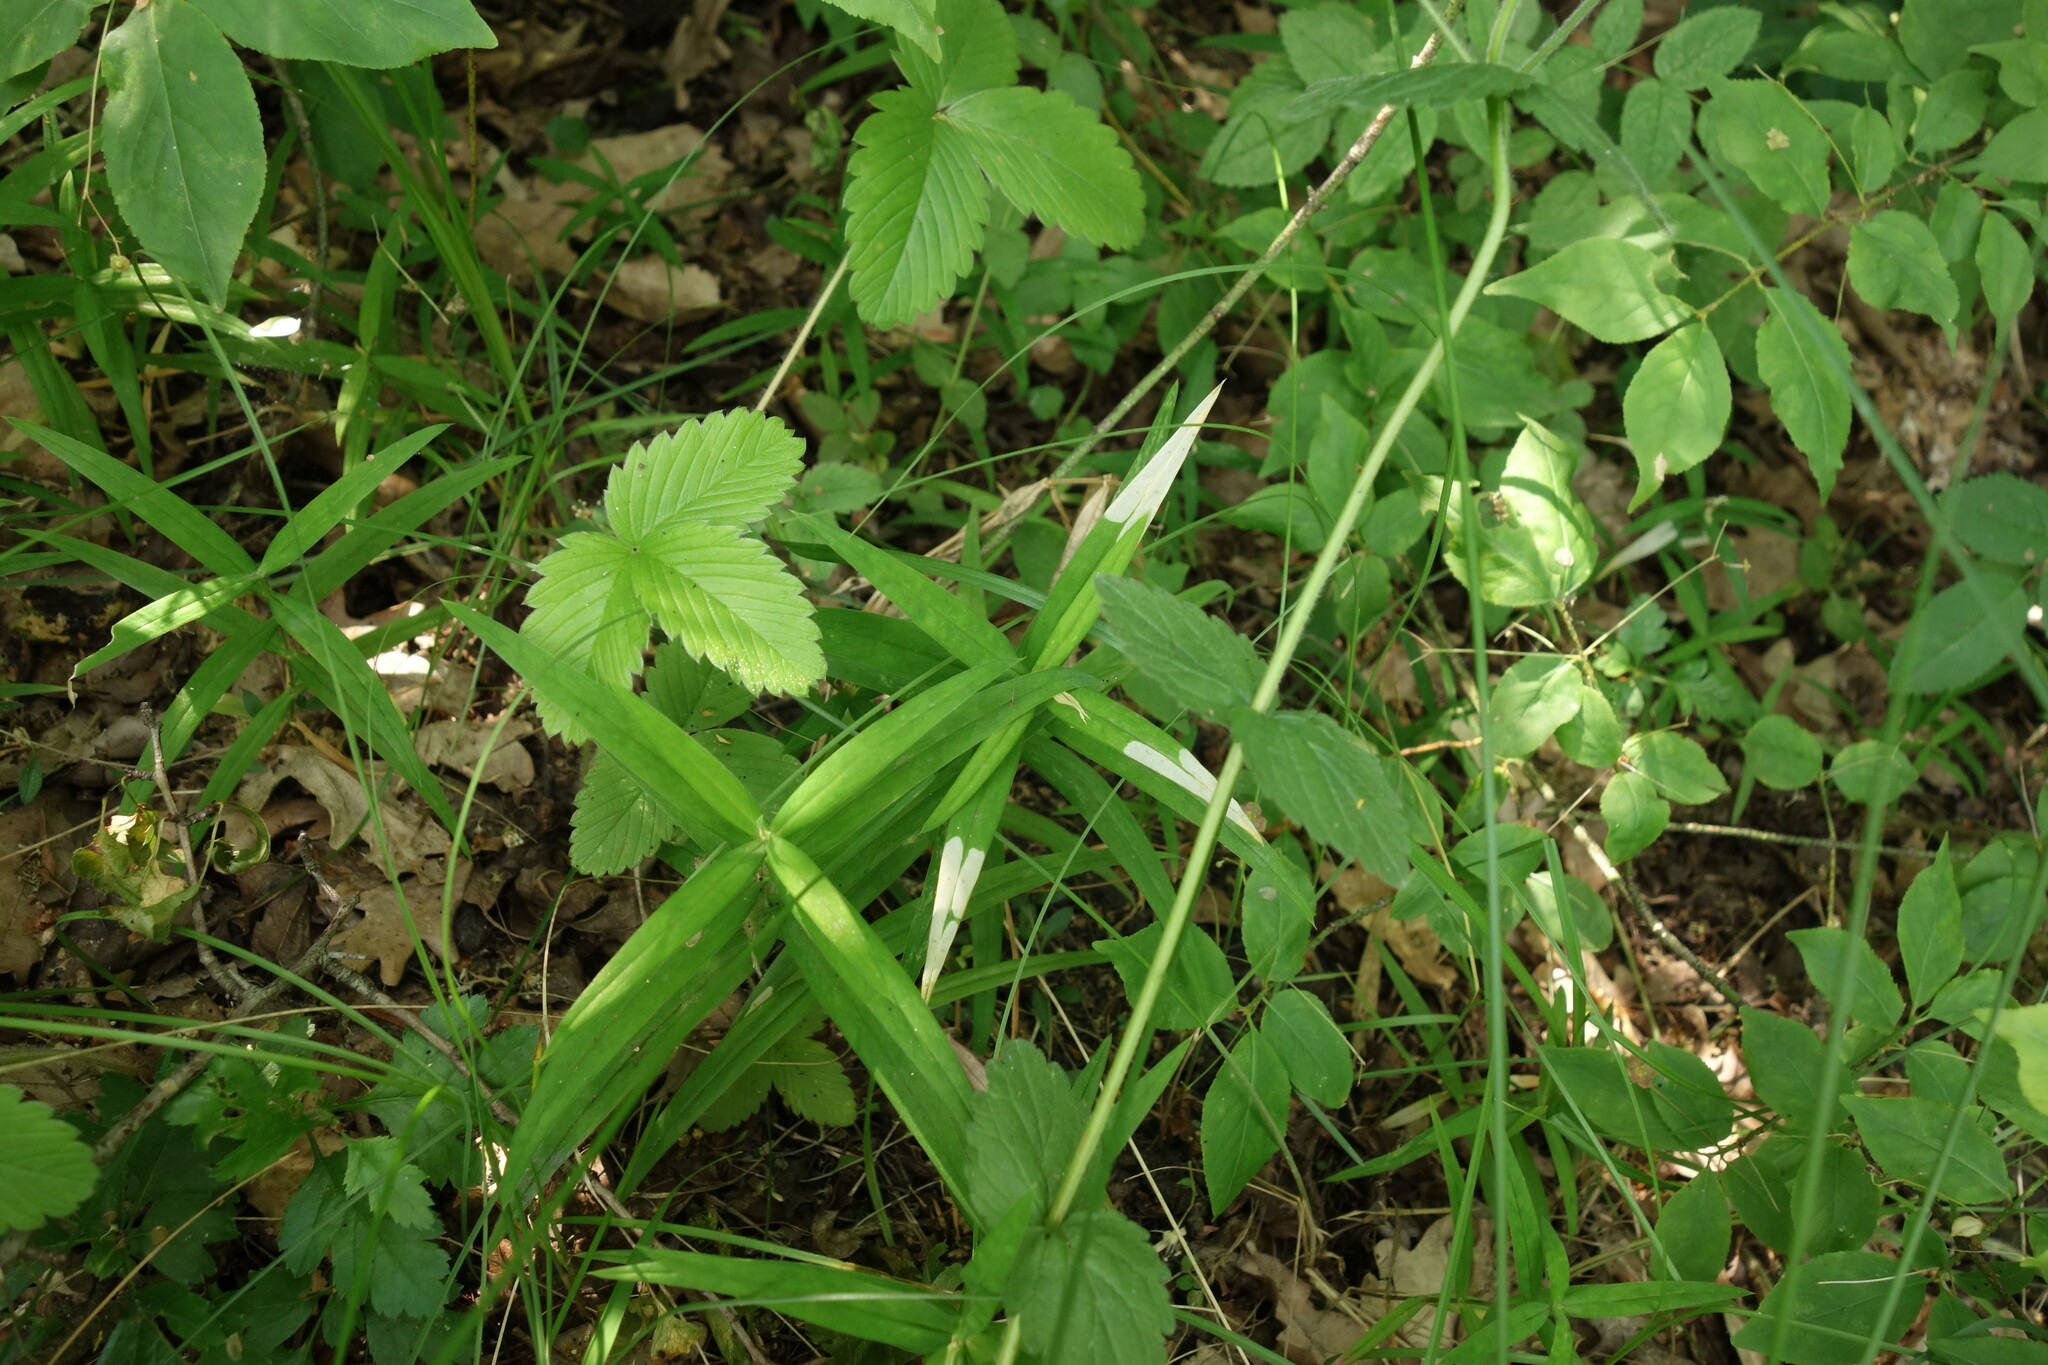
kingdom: Plantae
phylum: Tracheophyta
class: Magnoliopsida
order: Caryophyllales
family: Caryophyllaceae
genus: Rabelera
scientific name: Rabelera holostea
